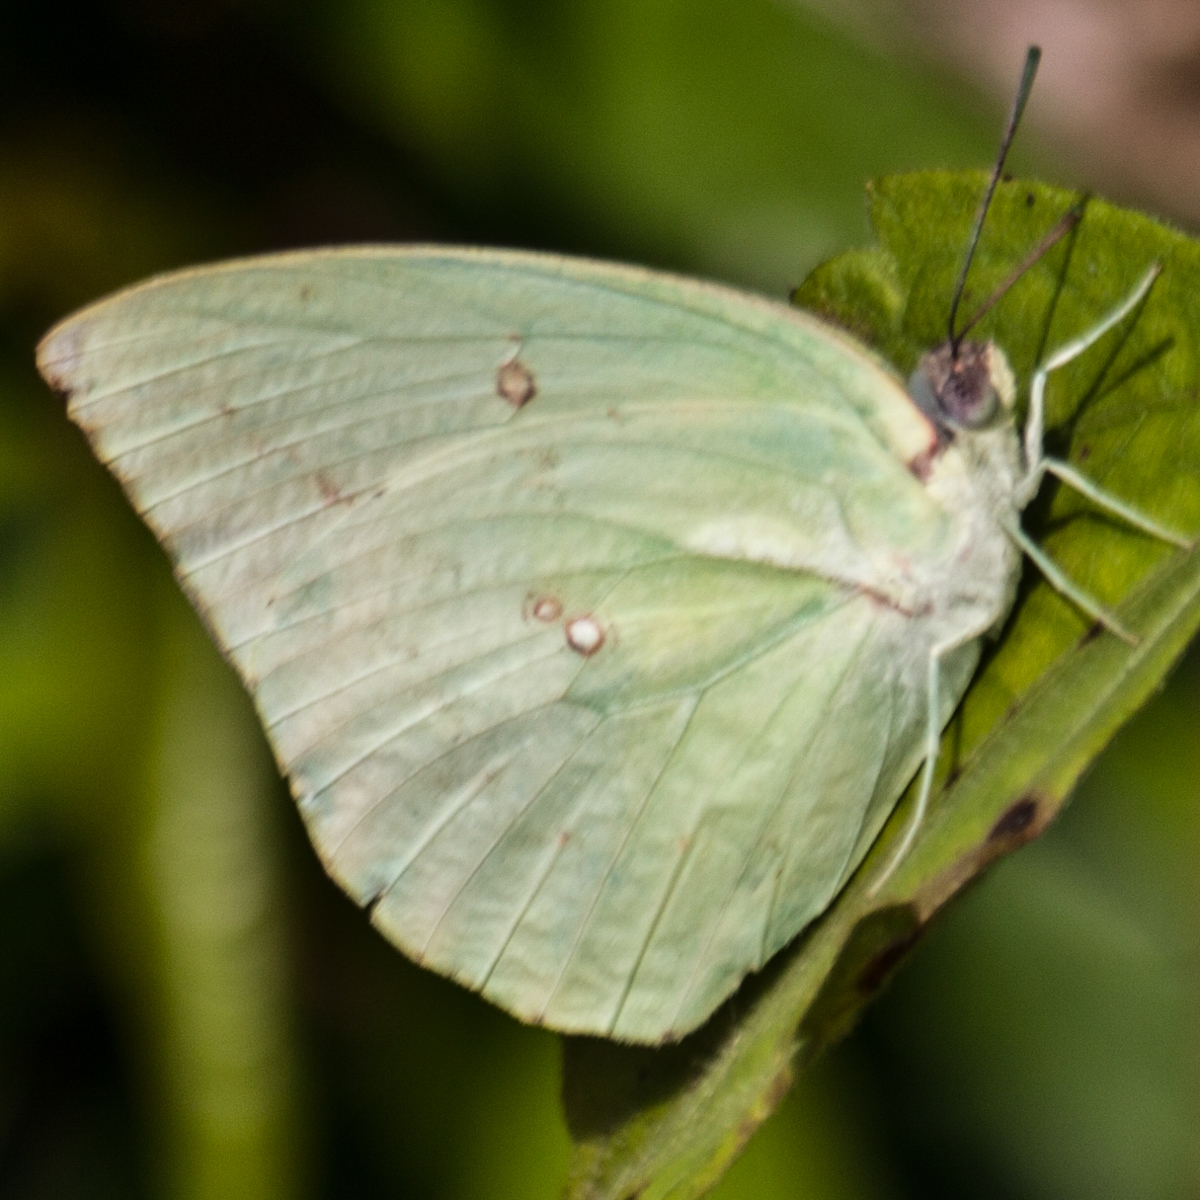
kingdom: Animalia
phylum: Arthropoda
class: Insecta
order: Lepidoptera
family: Pieridae
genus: Catopsilia
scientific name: Catopsilia pomona
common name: Common emigrant
